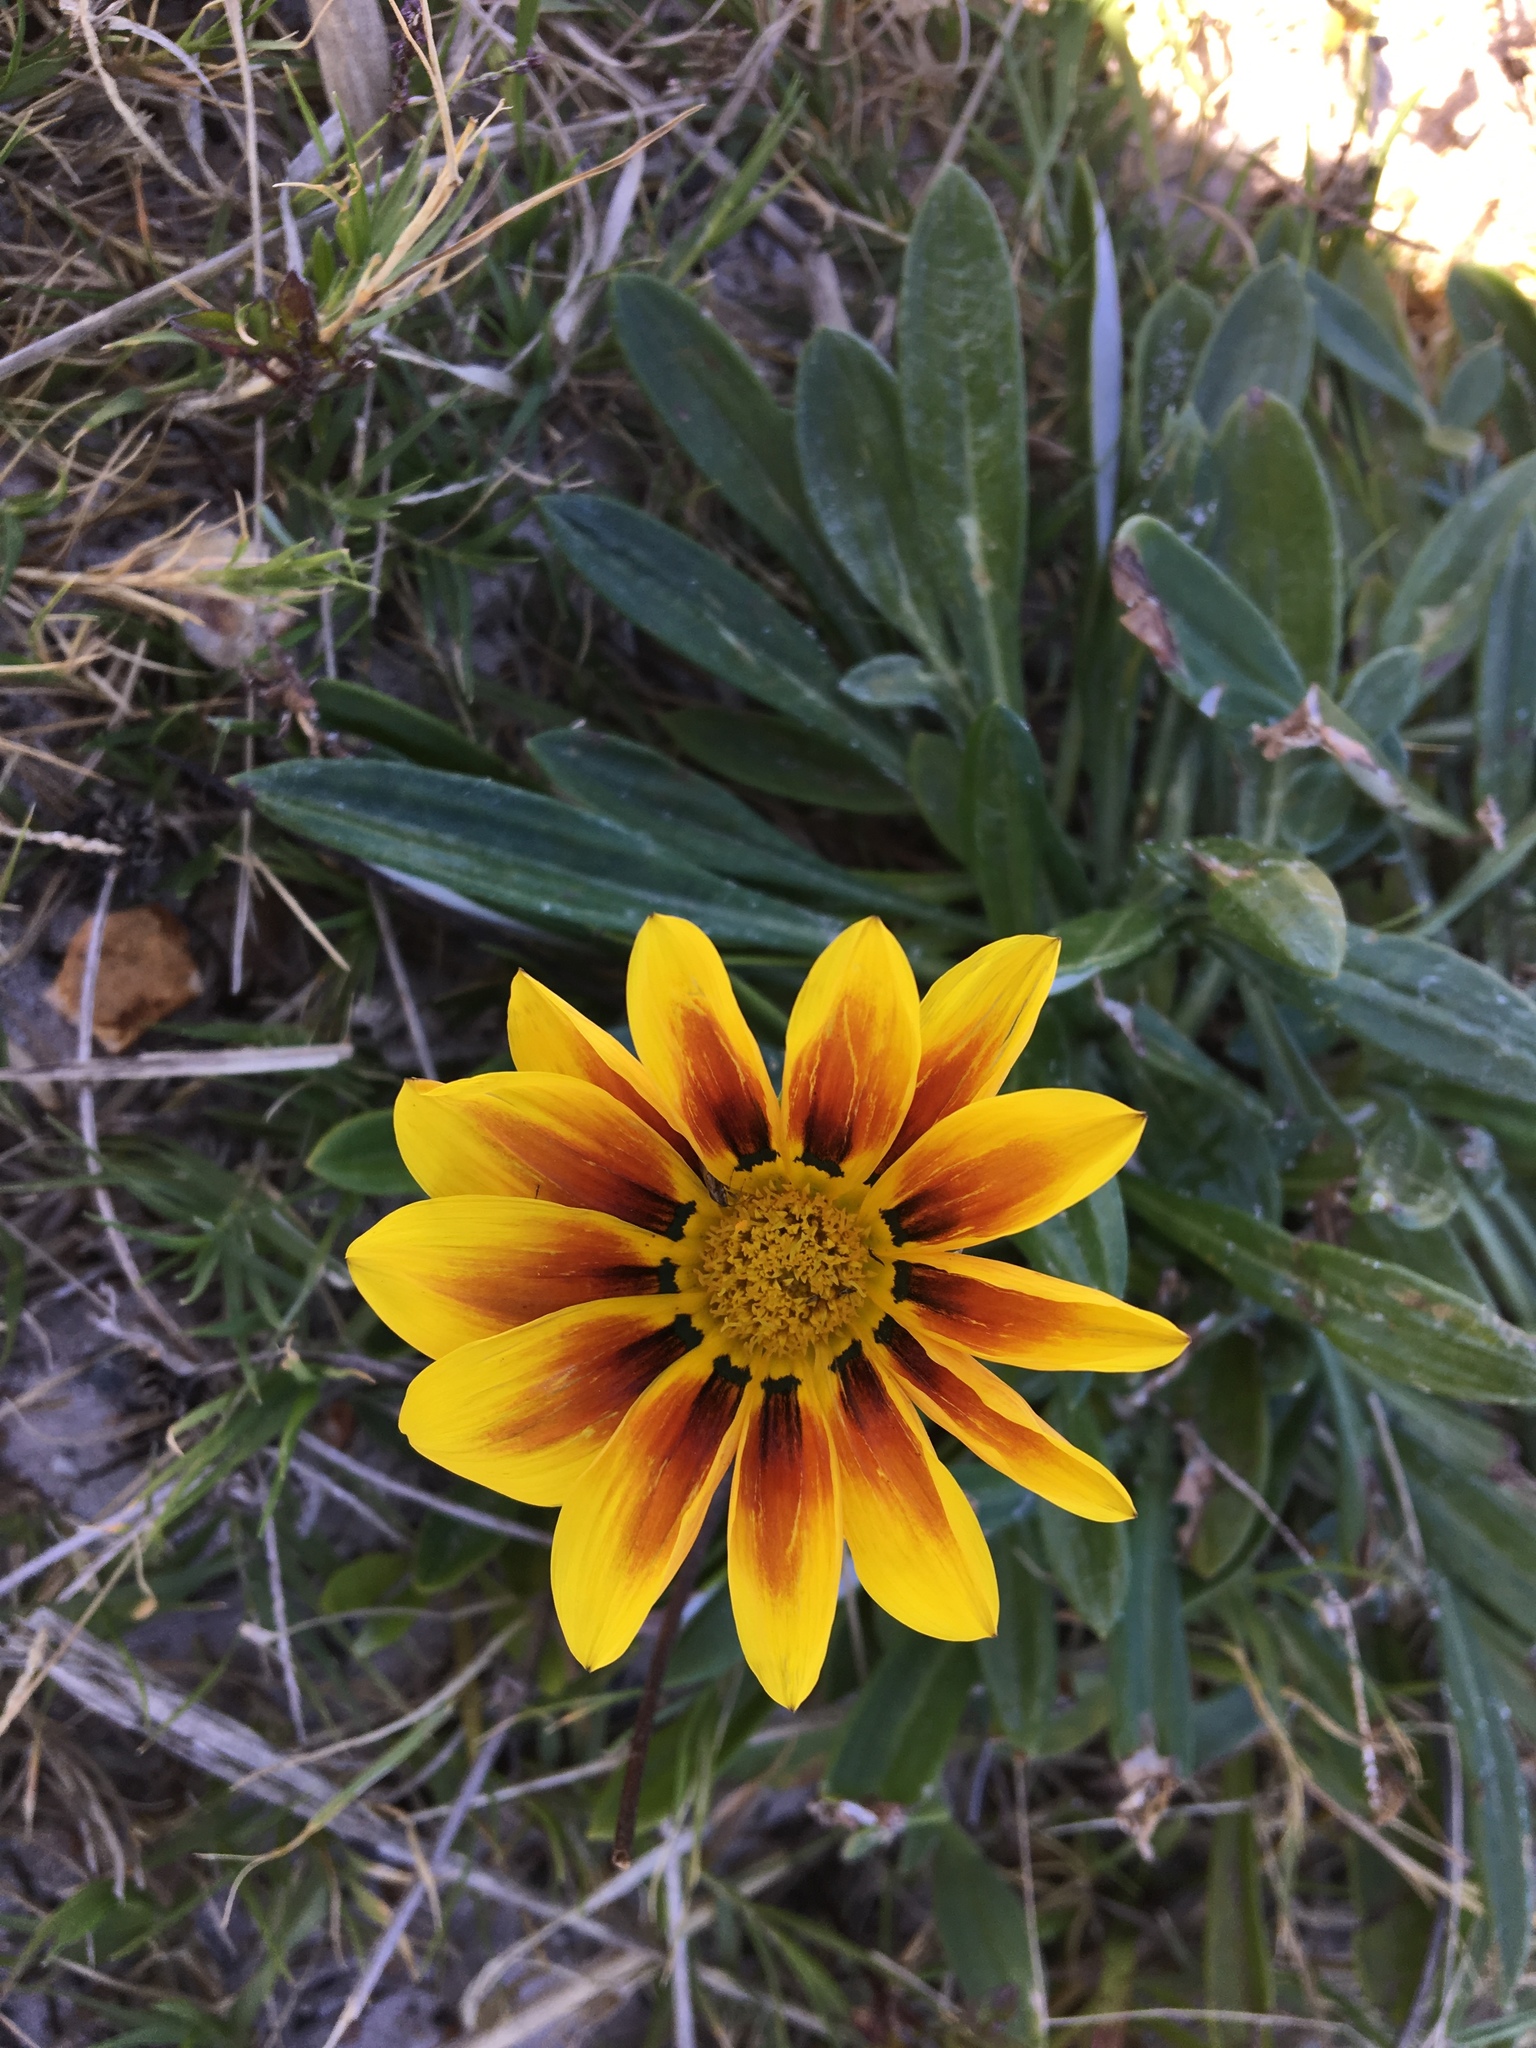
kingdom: Plantae
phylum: Tracheophyta
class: Magnoliopsida
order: Asterales
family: Asteraceae
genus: Gazania
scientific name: Gazania splendens
